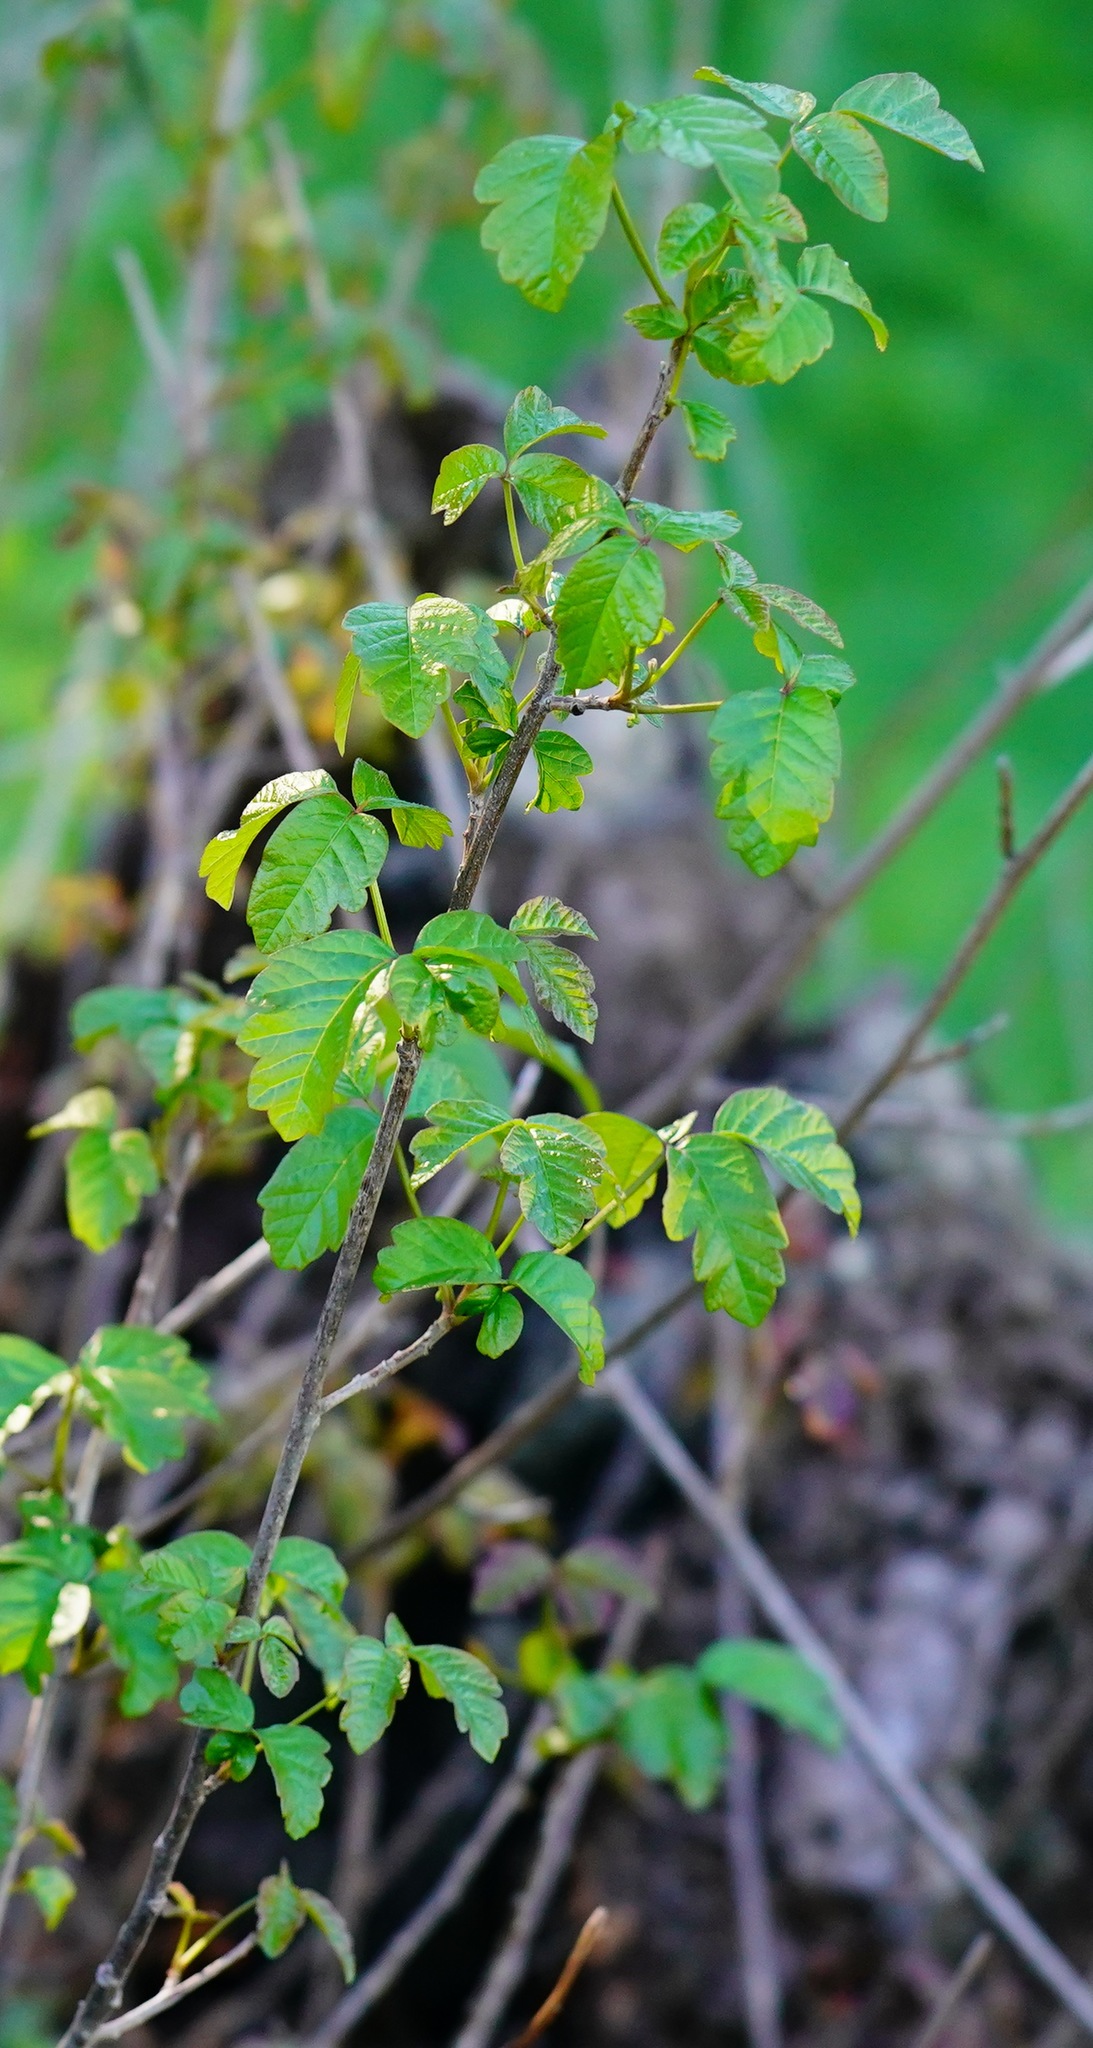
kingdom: Plantae
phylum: Tracheophyta
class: Magnoliopsida
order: Sapindales
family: Anacardiaceae
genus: Toxicodendron
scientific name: Toxicodendron diversilobum
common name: Pacific poison-oak
